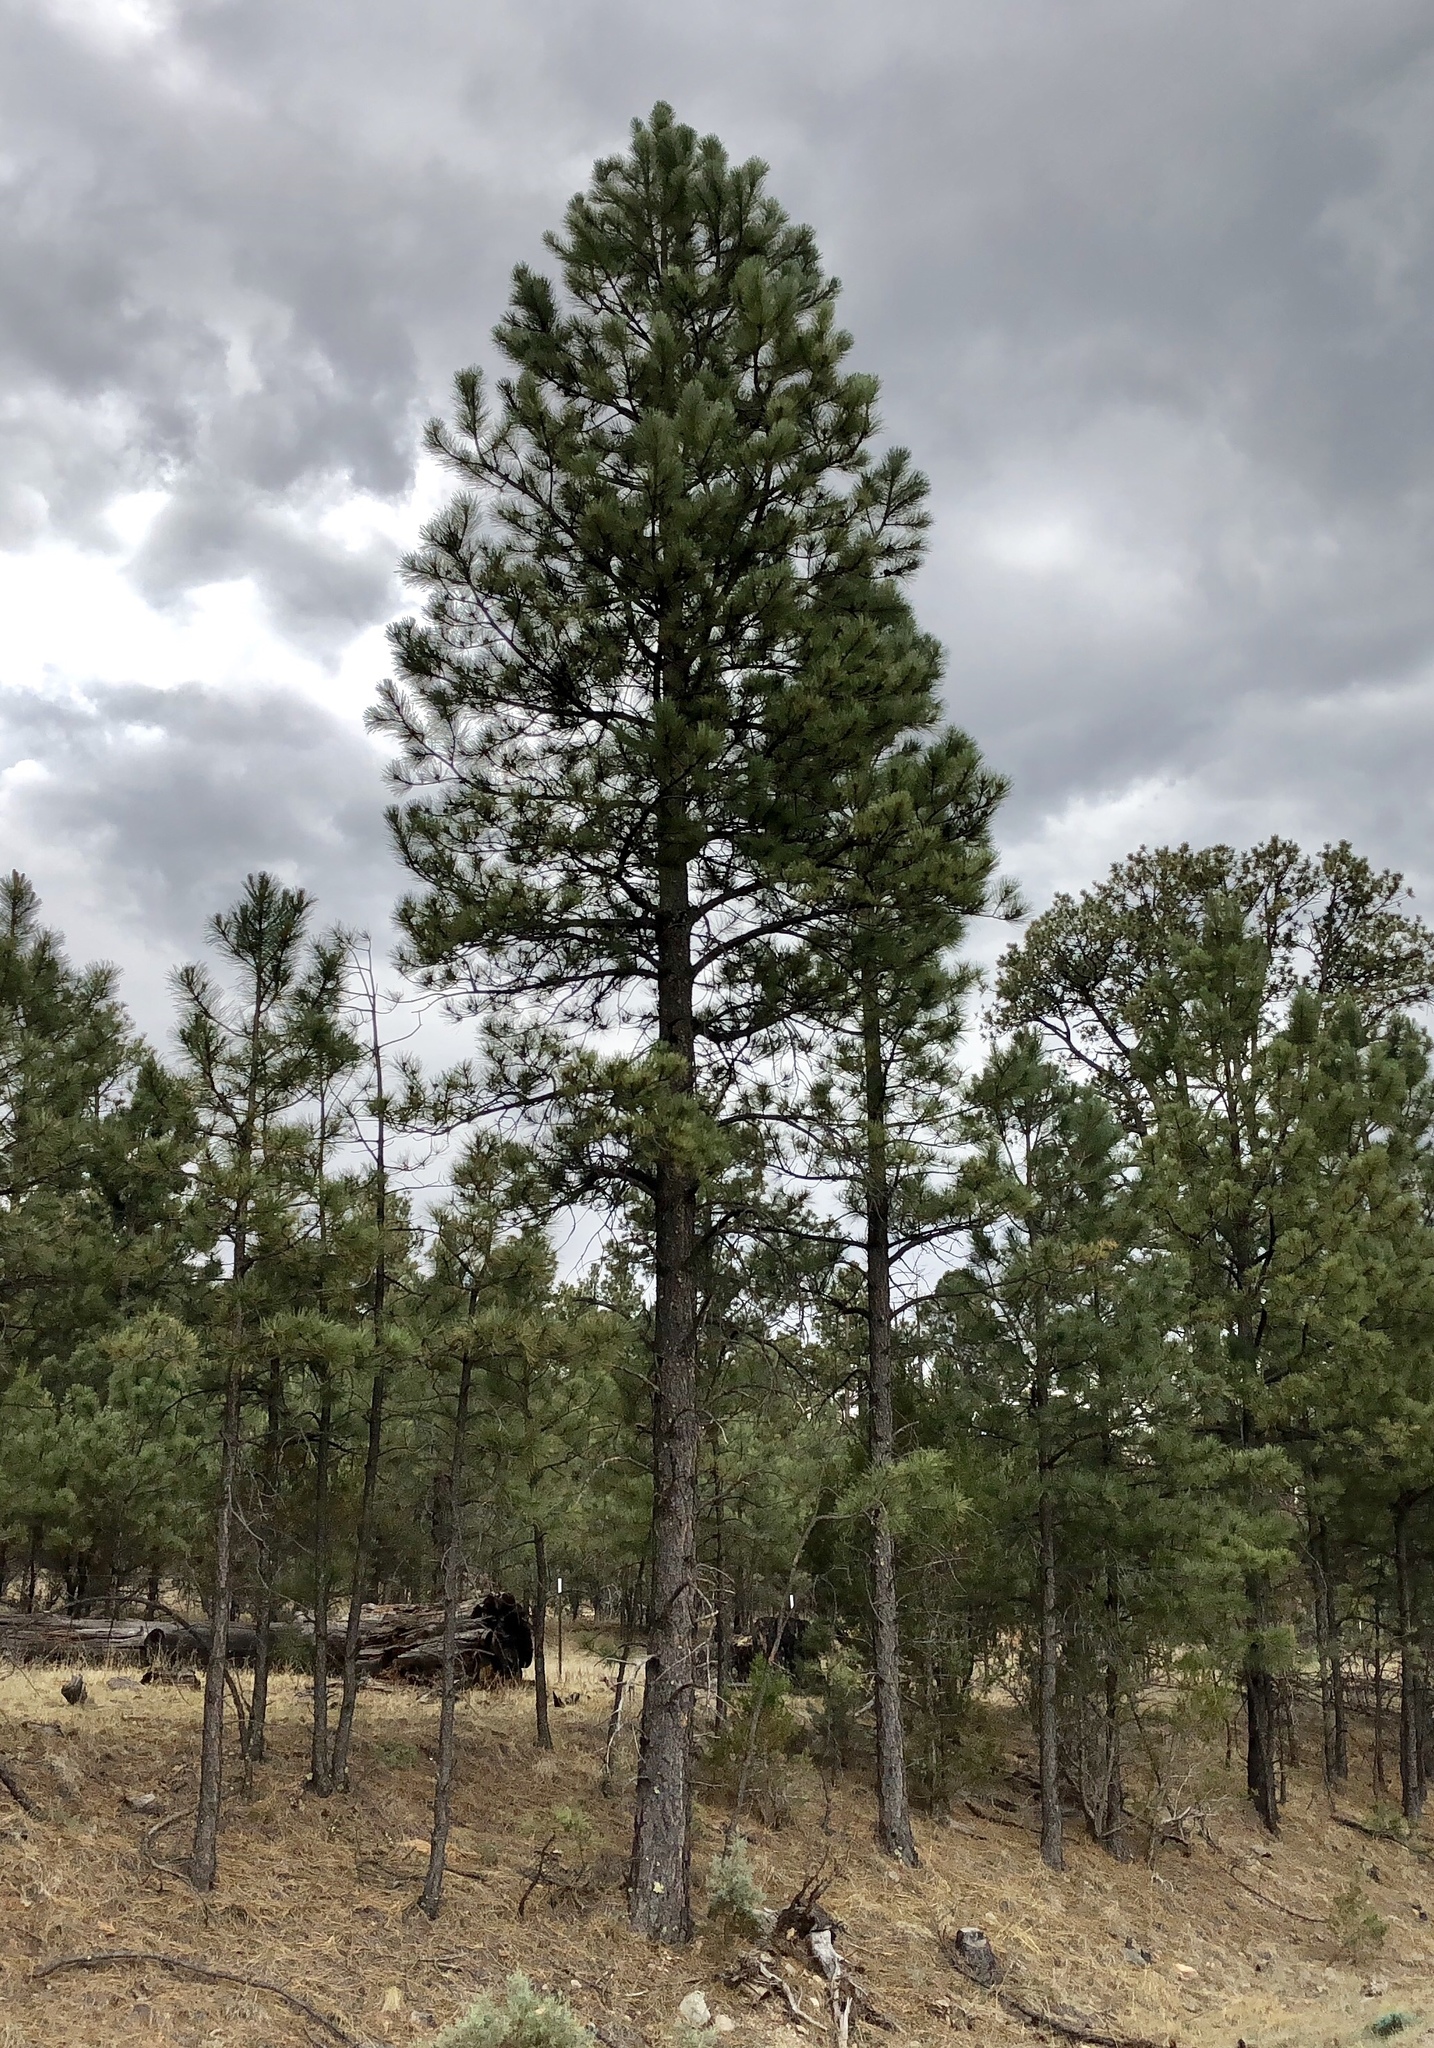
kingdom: Plantae
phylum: Tracheophyta
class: Pinopsida
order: Pinales
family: Pinaceae
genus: Pinus
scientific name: Pinus ponderosa
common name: Western yellow-pine
